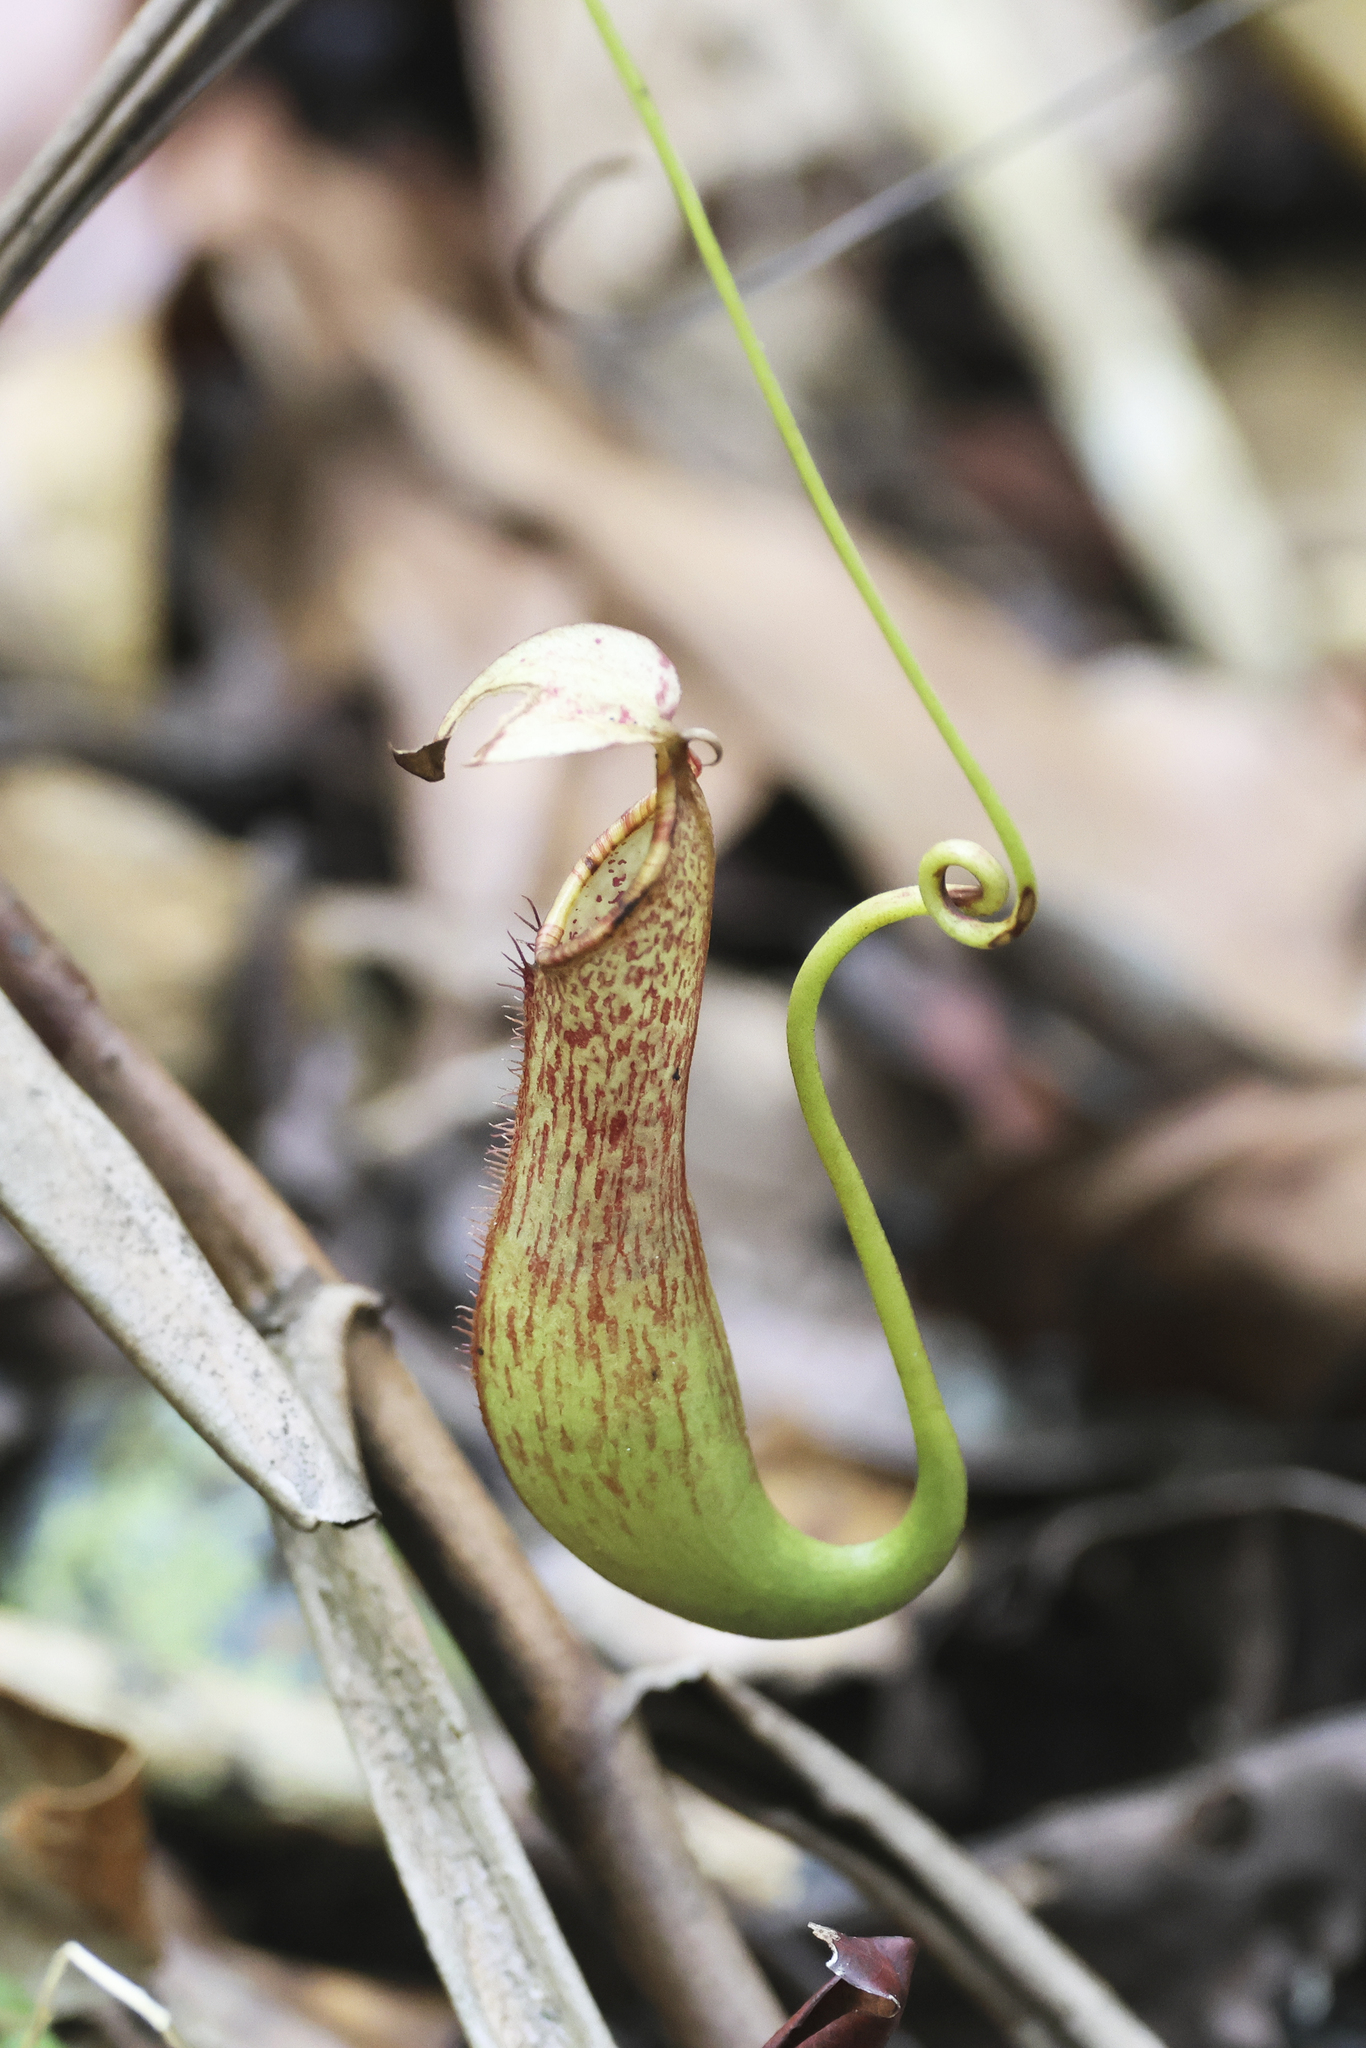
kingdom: Plantae
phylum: Tracheophyta
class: Magnoliopsida
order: Caryophyllales
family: Nepenthaceae
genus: Nepenthes
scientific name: Nepenthes macrovulgaris
